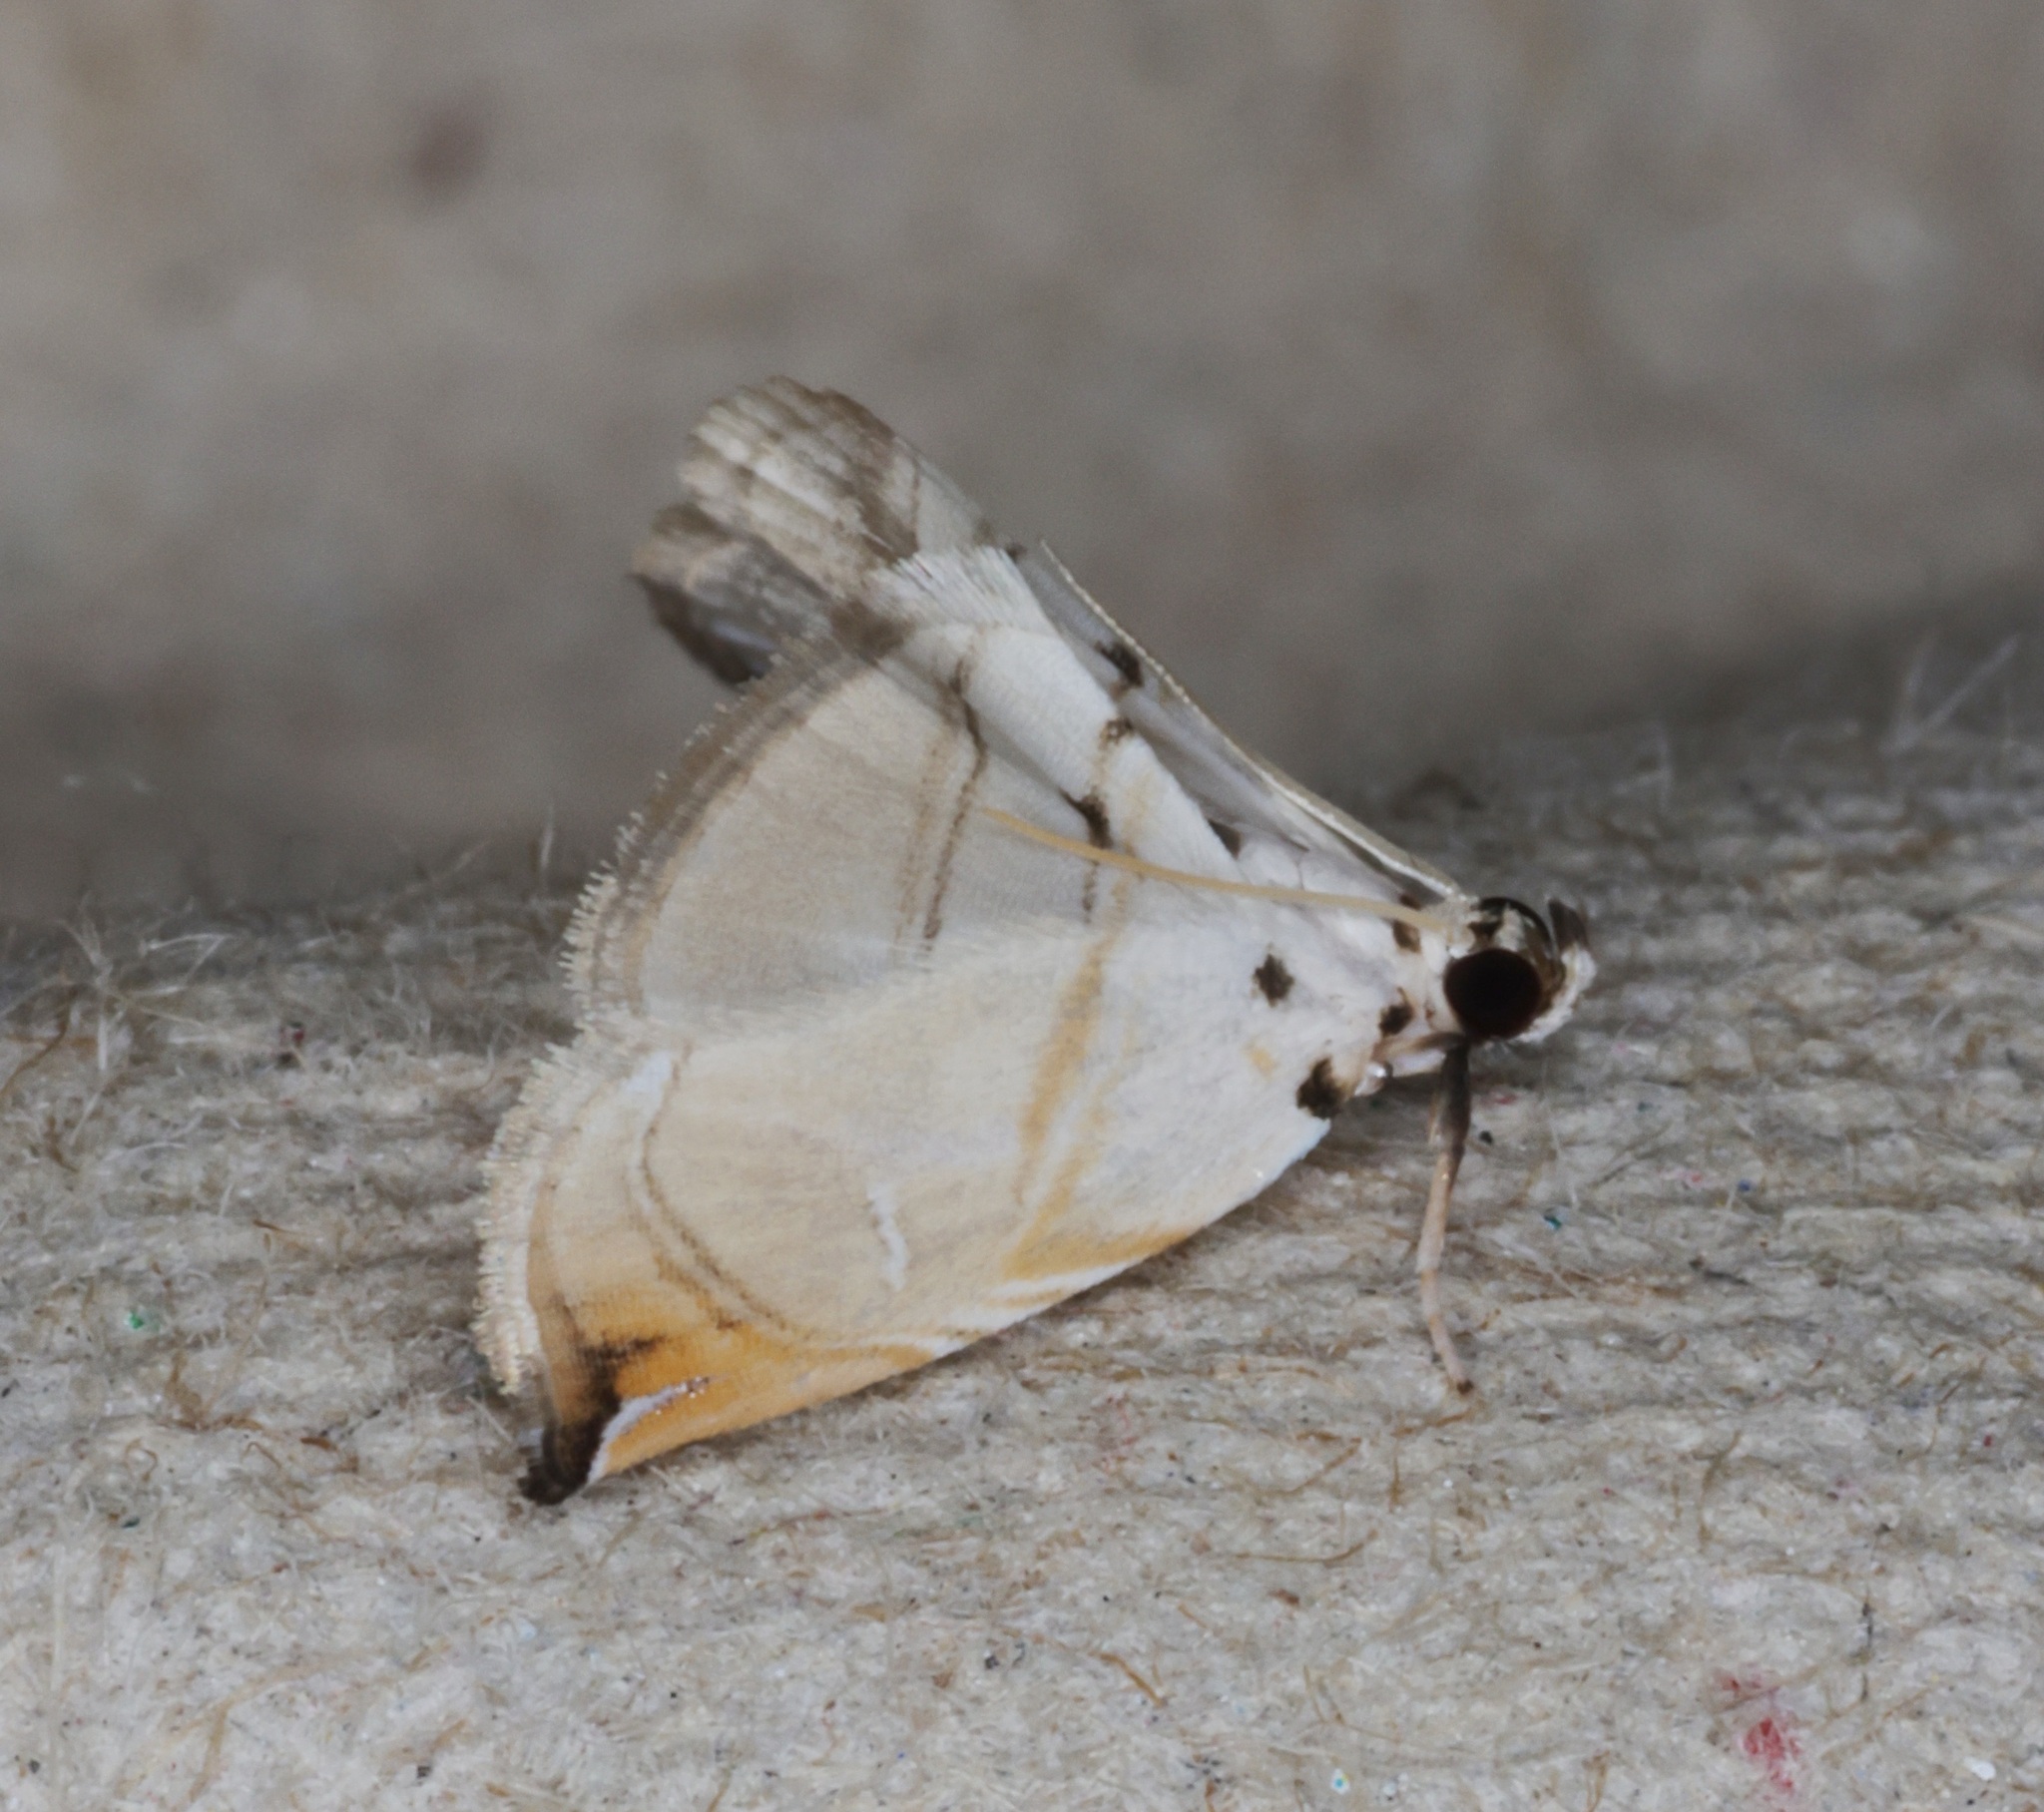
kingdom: Animalia
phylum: Arthropoda
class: Insecta
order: Lepidoptera
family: Crambidae
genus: Trichophysetis
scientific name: Trichophysetis hampsoni
